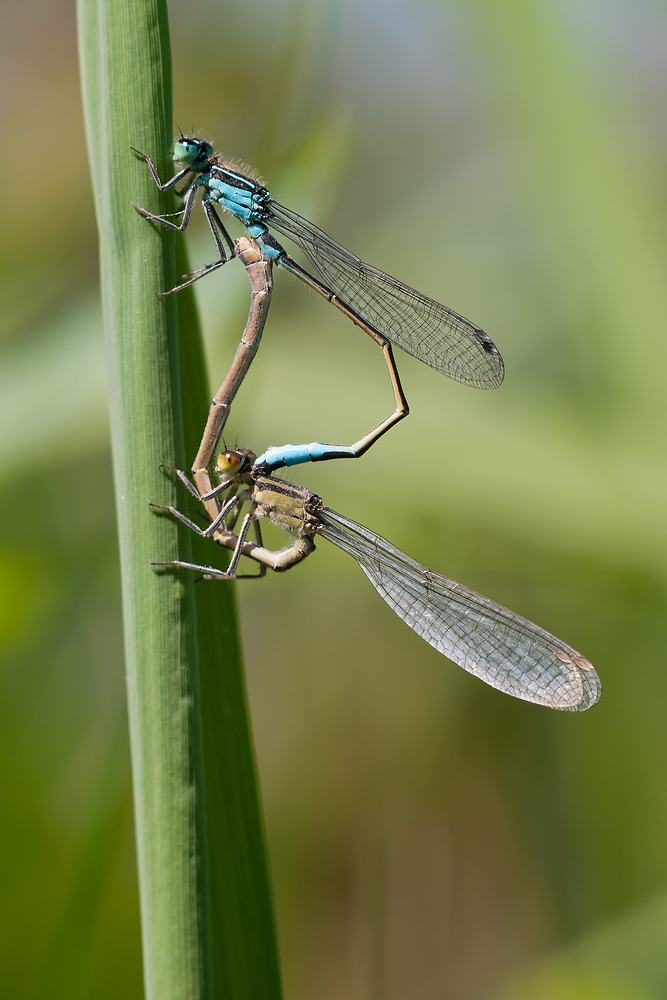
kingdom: Animalia
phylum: Arthropoda
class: Insecta
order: Odonata
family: Coenagrionidae
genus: Ischnura
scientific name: Ischnura elegans
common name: Blue-tailed damselfly
